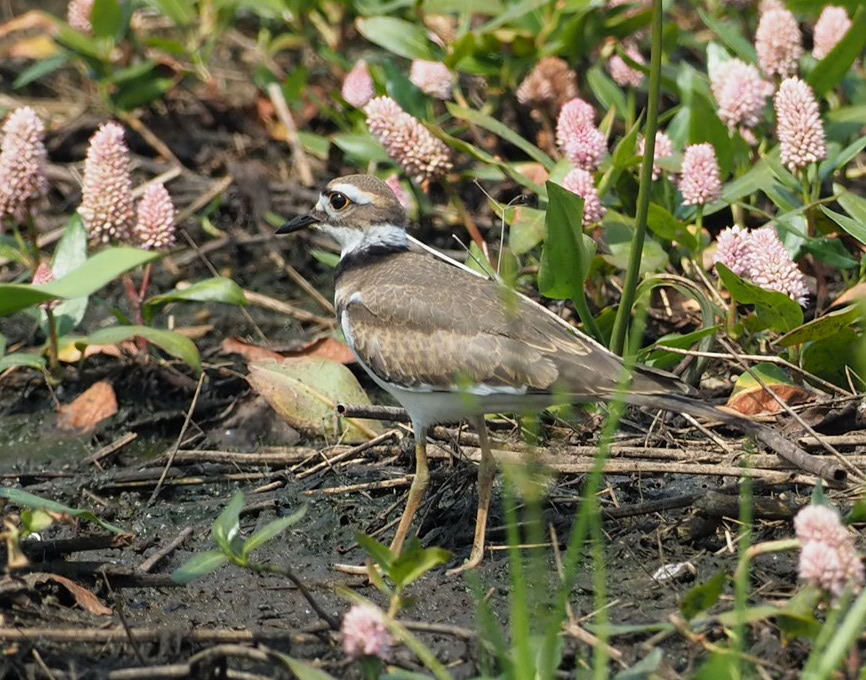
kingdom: Animalia
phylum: Chordata
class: Aves
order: Charadriiformes
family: Charadriidae
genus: Charadrius
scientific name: Charadrius vociferus
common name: Killdeer
